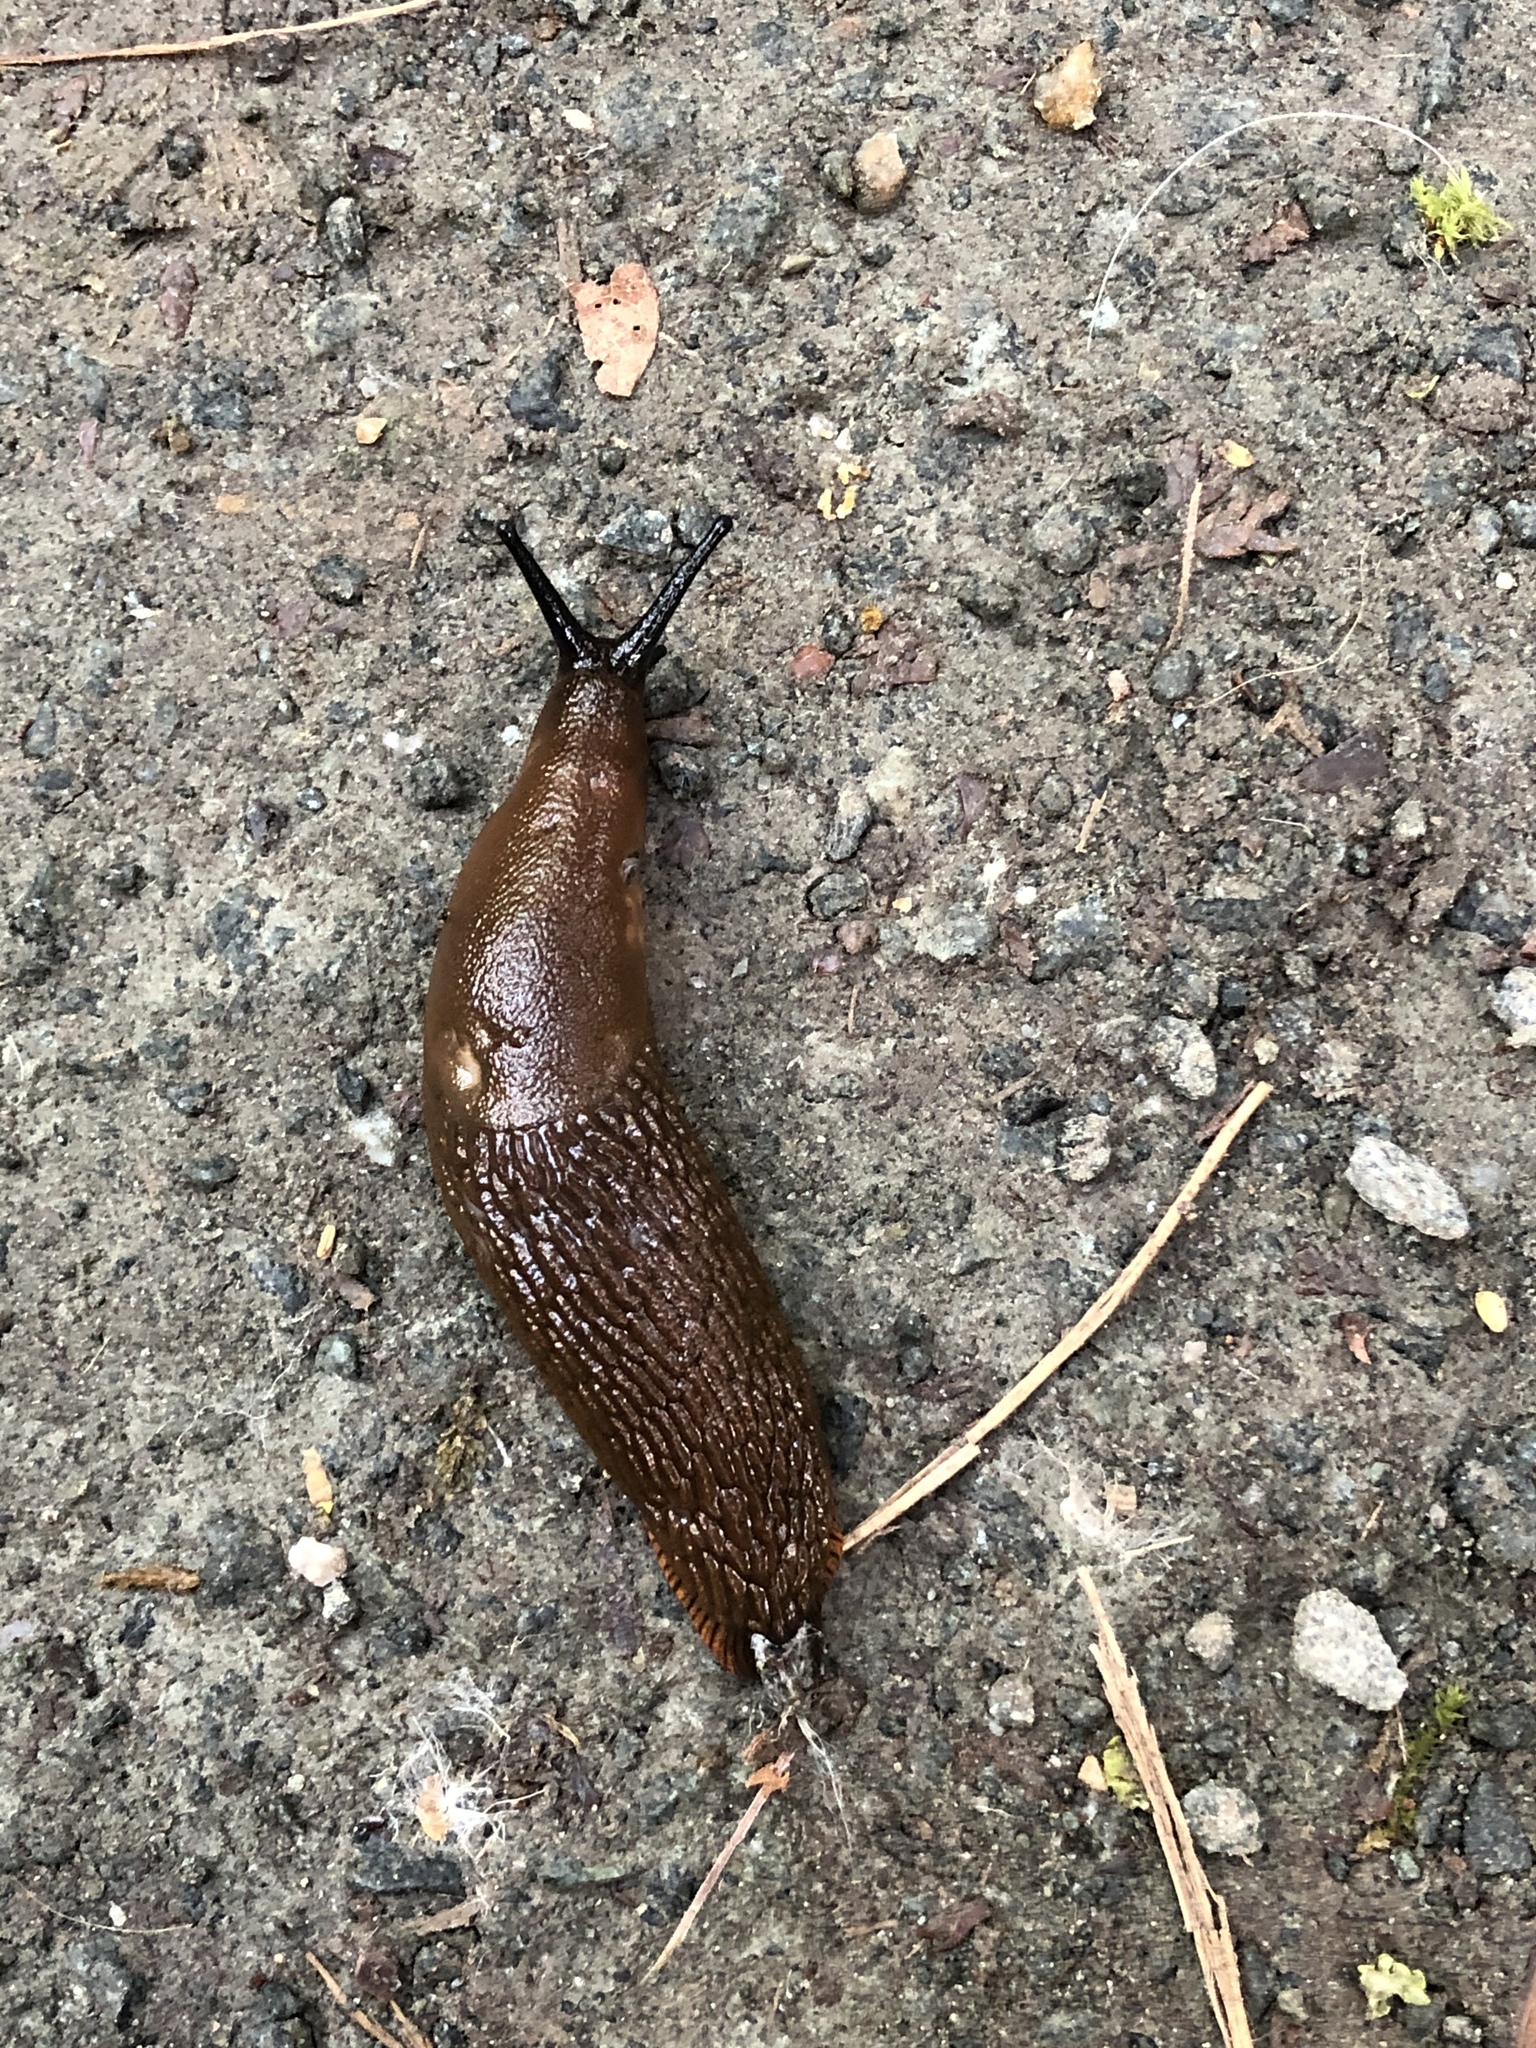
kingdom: Animalia
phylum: Mollusca
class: Gastropoda
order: Stylommatophora
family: Arionidae
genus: Arion
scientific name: Arion rufus
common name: Chocolate arion
